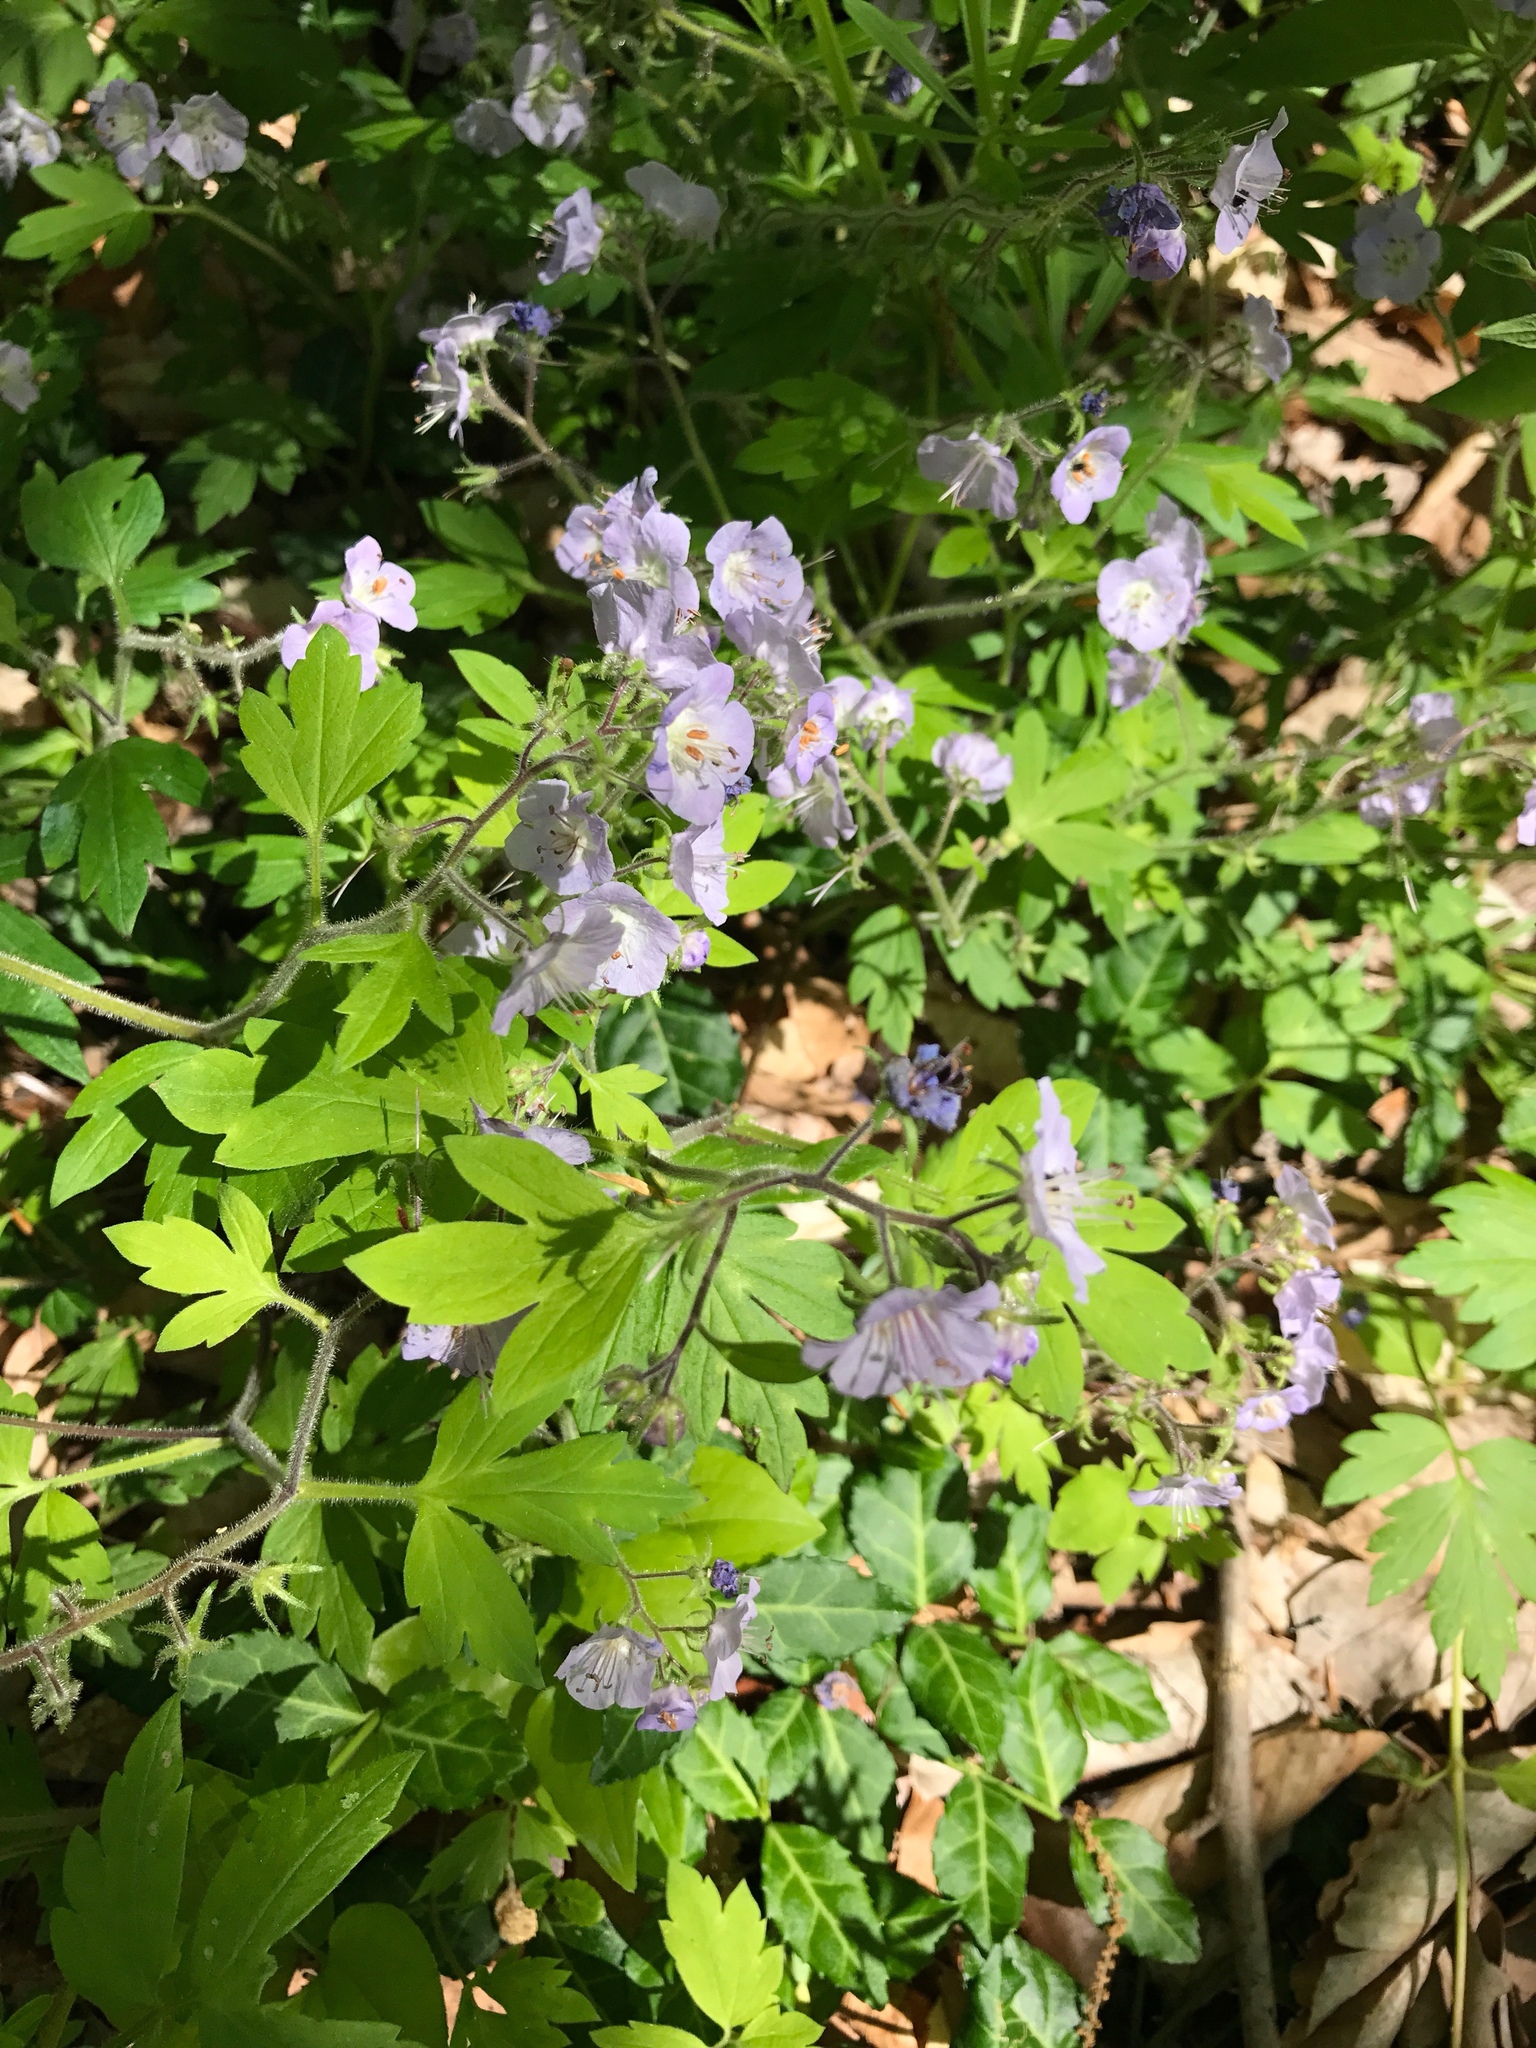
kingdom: Plantae
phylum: Tracheophyta
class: Magnoliopsida
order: Boraginales
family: Hydrophyllaceae
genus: Phacelia
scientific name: Phacelia bipinnatifida
